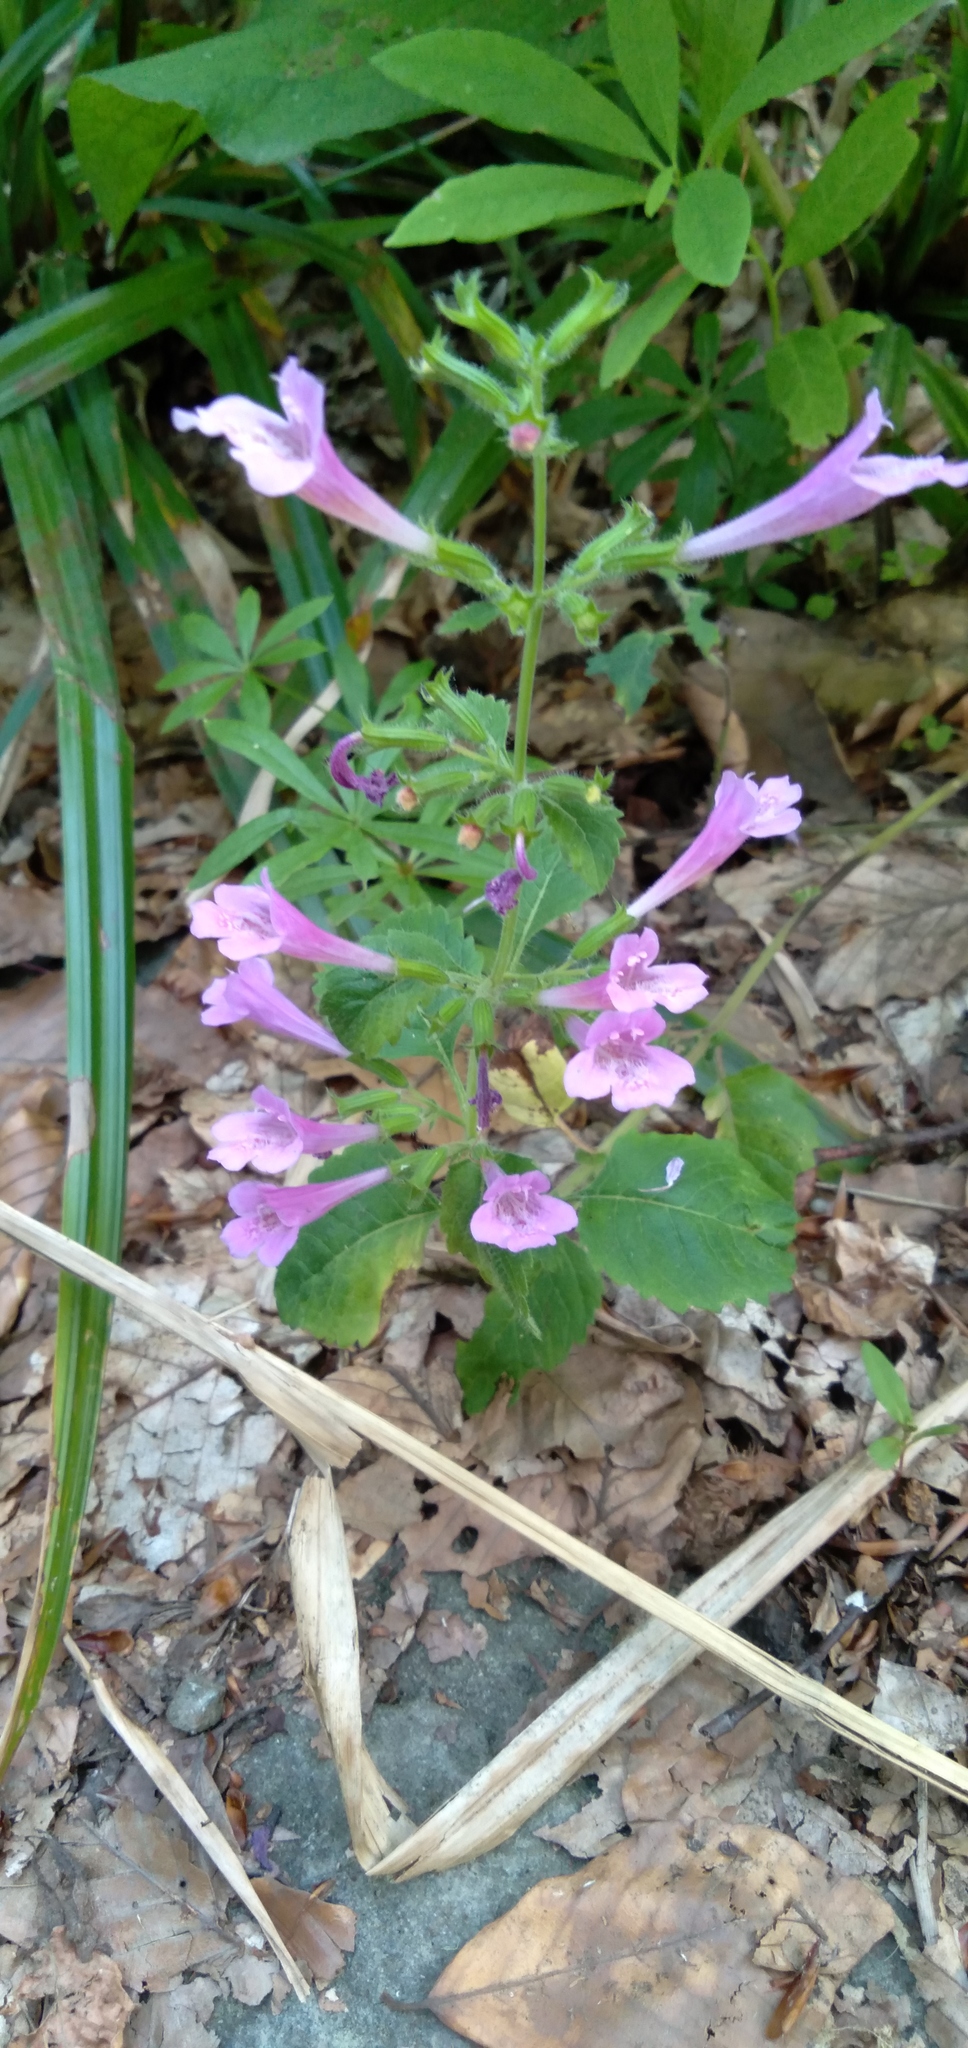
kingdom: Plantae
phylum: Tracheophyta
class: Magnoliopsida
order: Lamiales
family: Lamiaceae
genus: Clinopodium
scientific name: Clinopodium grandiflorum
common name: Greater calamint
